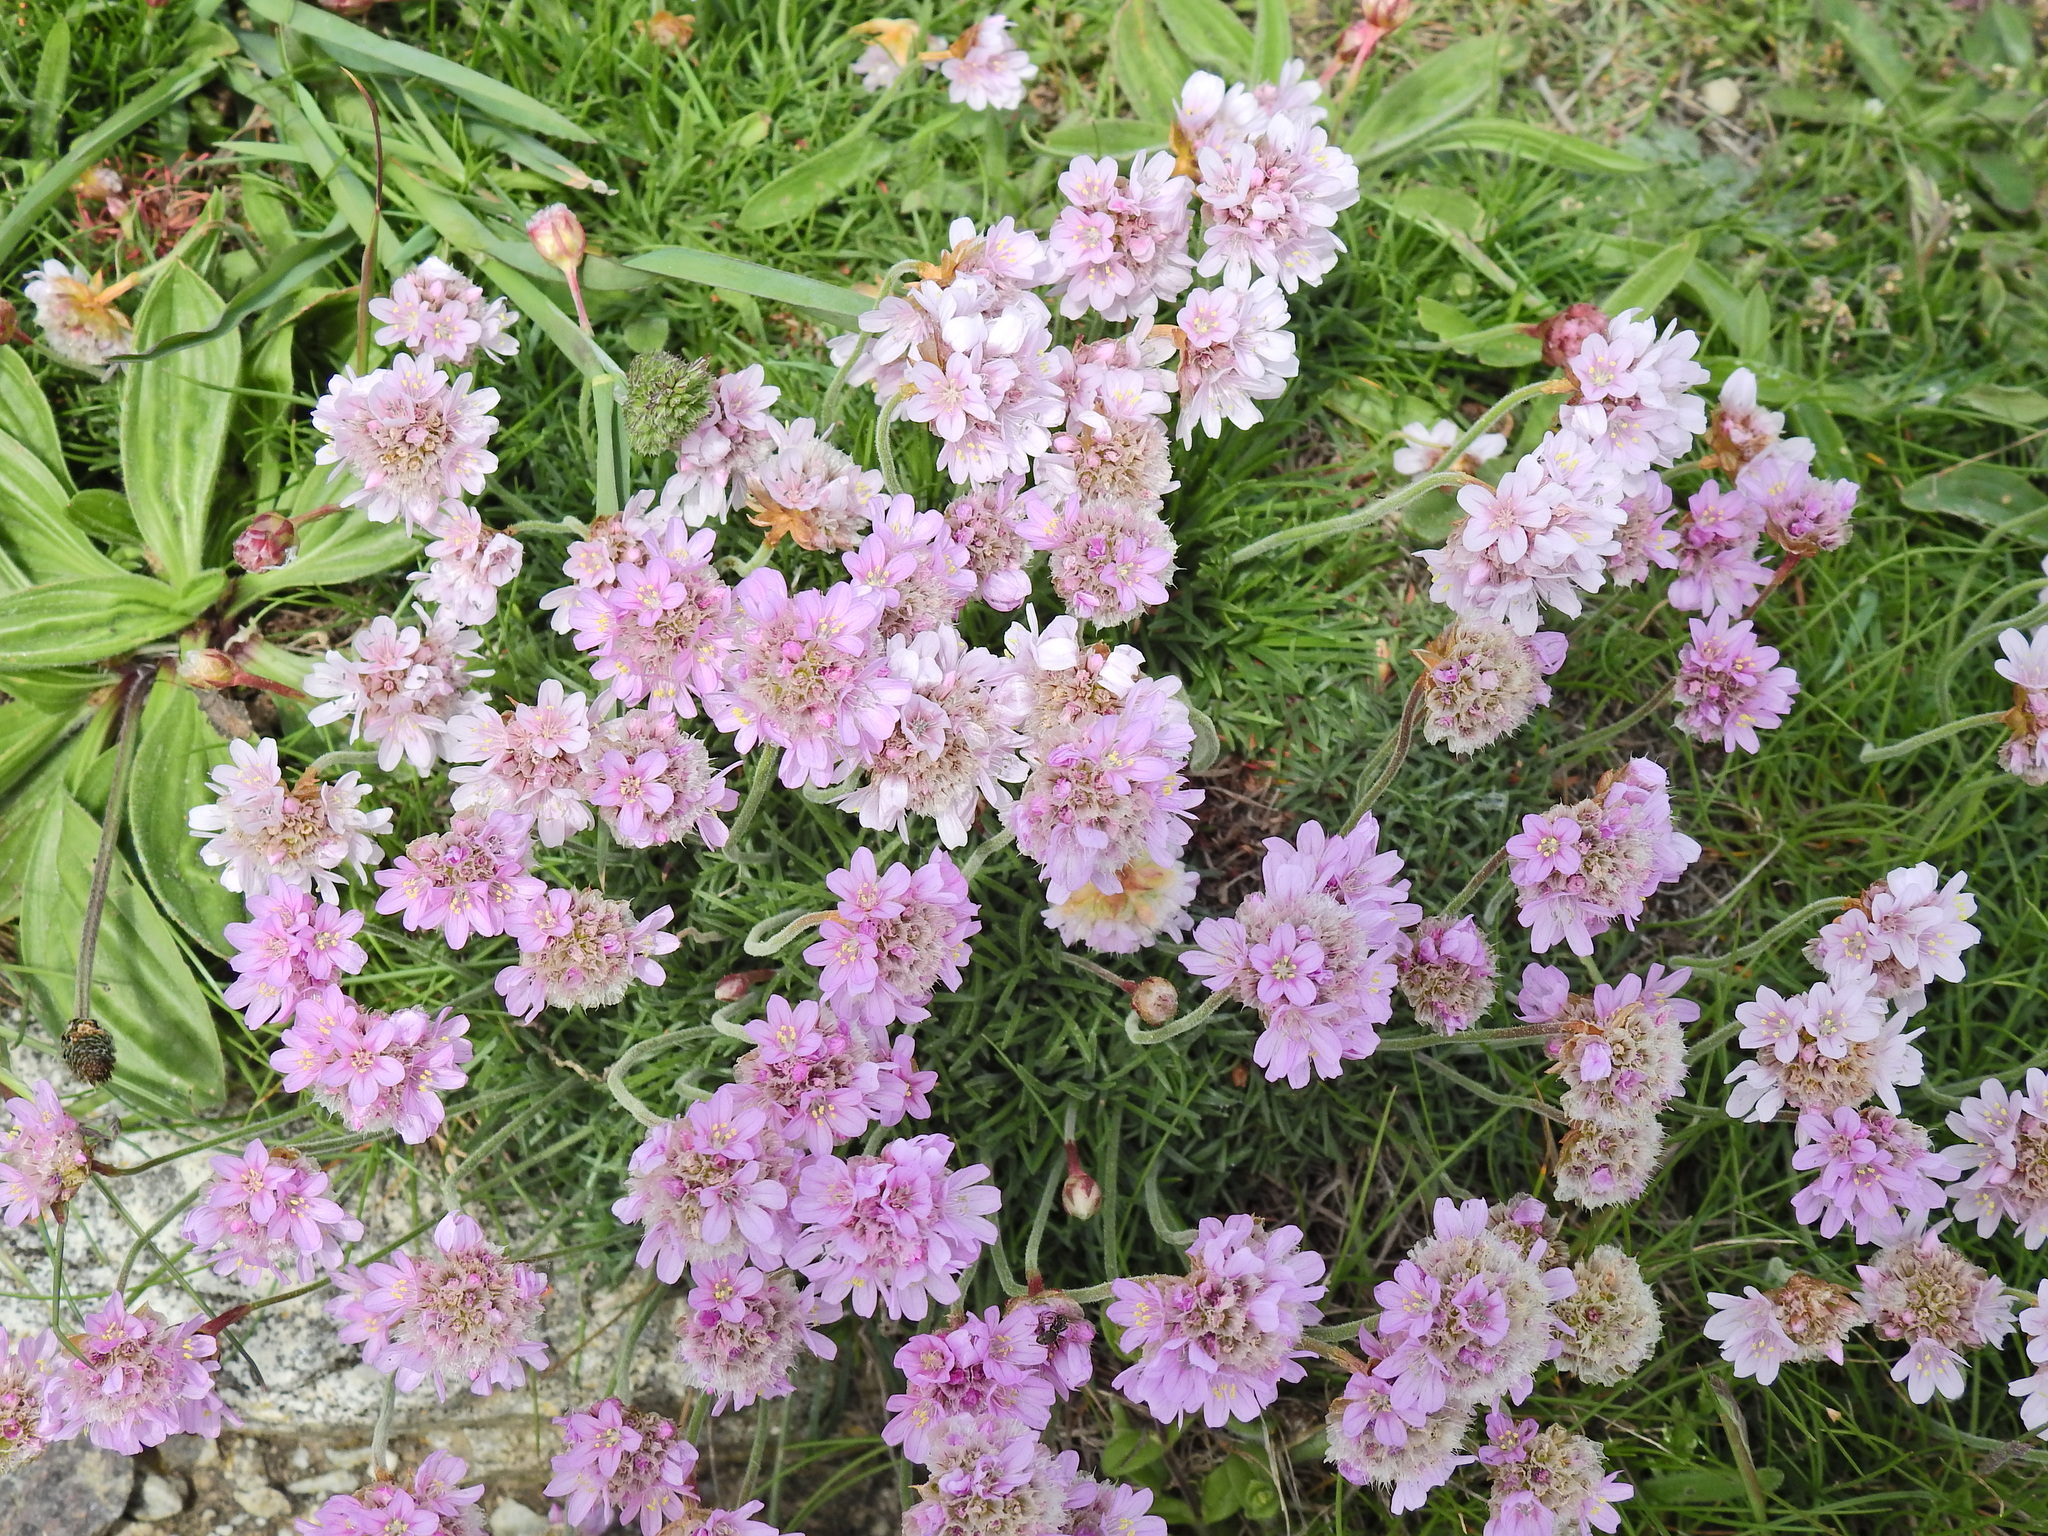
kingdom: Plantae
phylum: Tracheophyta
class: Magnoliopsida
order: Caryophyllales
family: Plumbaginaceae
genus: Armeria
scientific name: Armeria maritima
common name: Thrift
